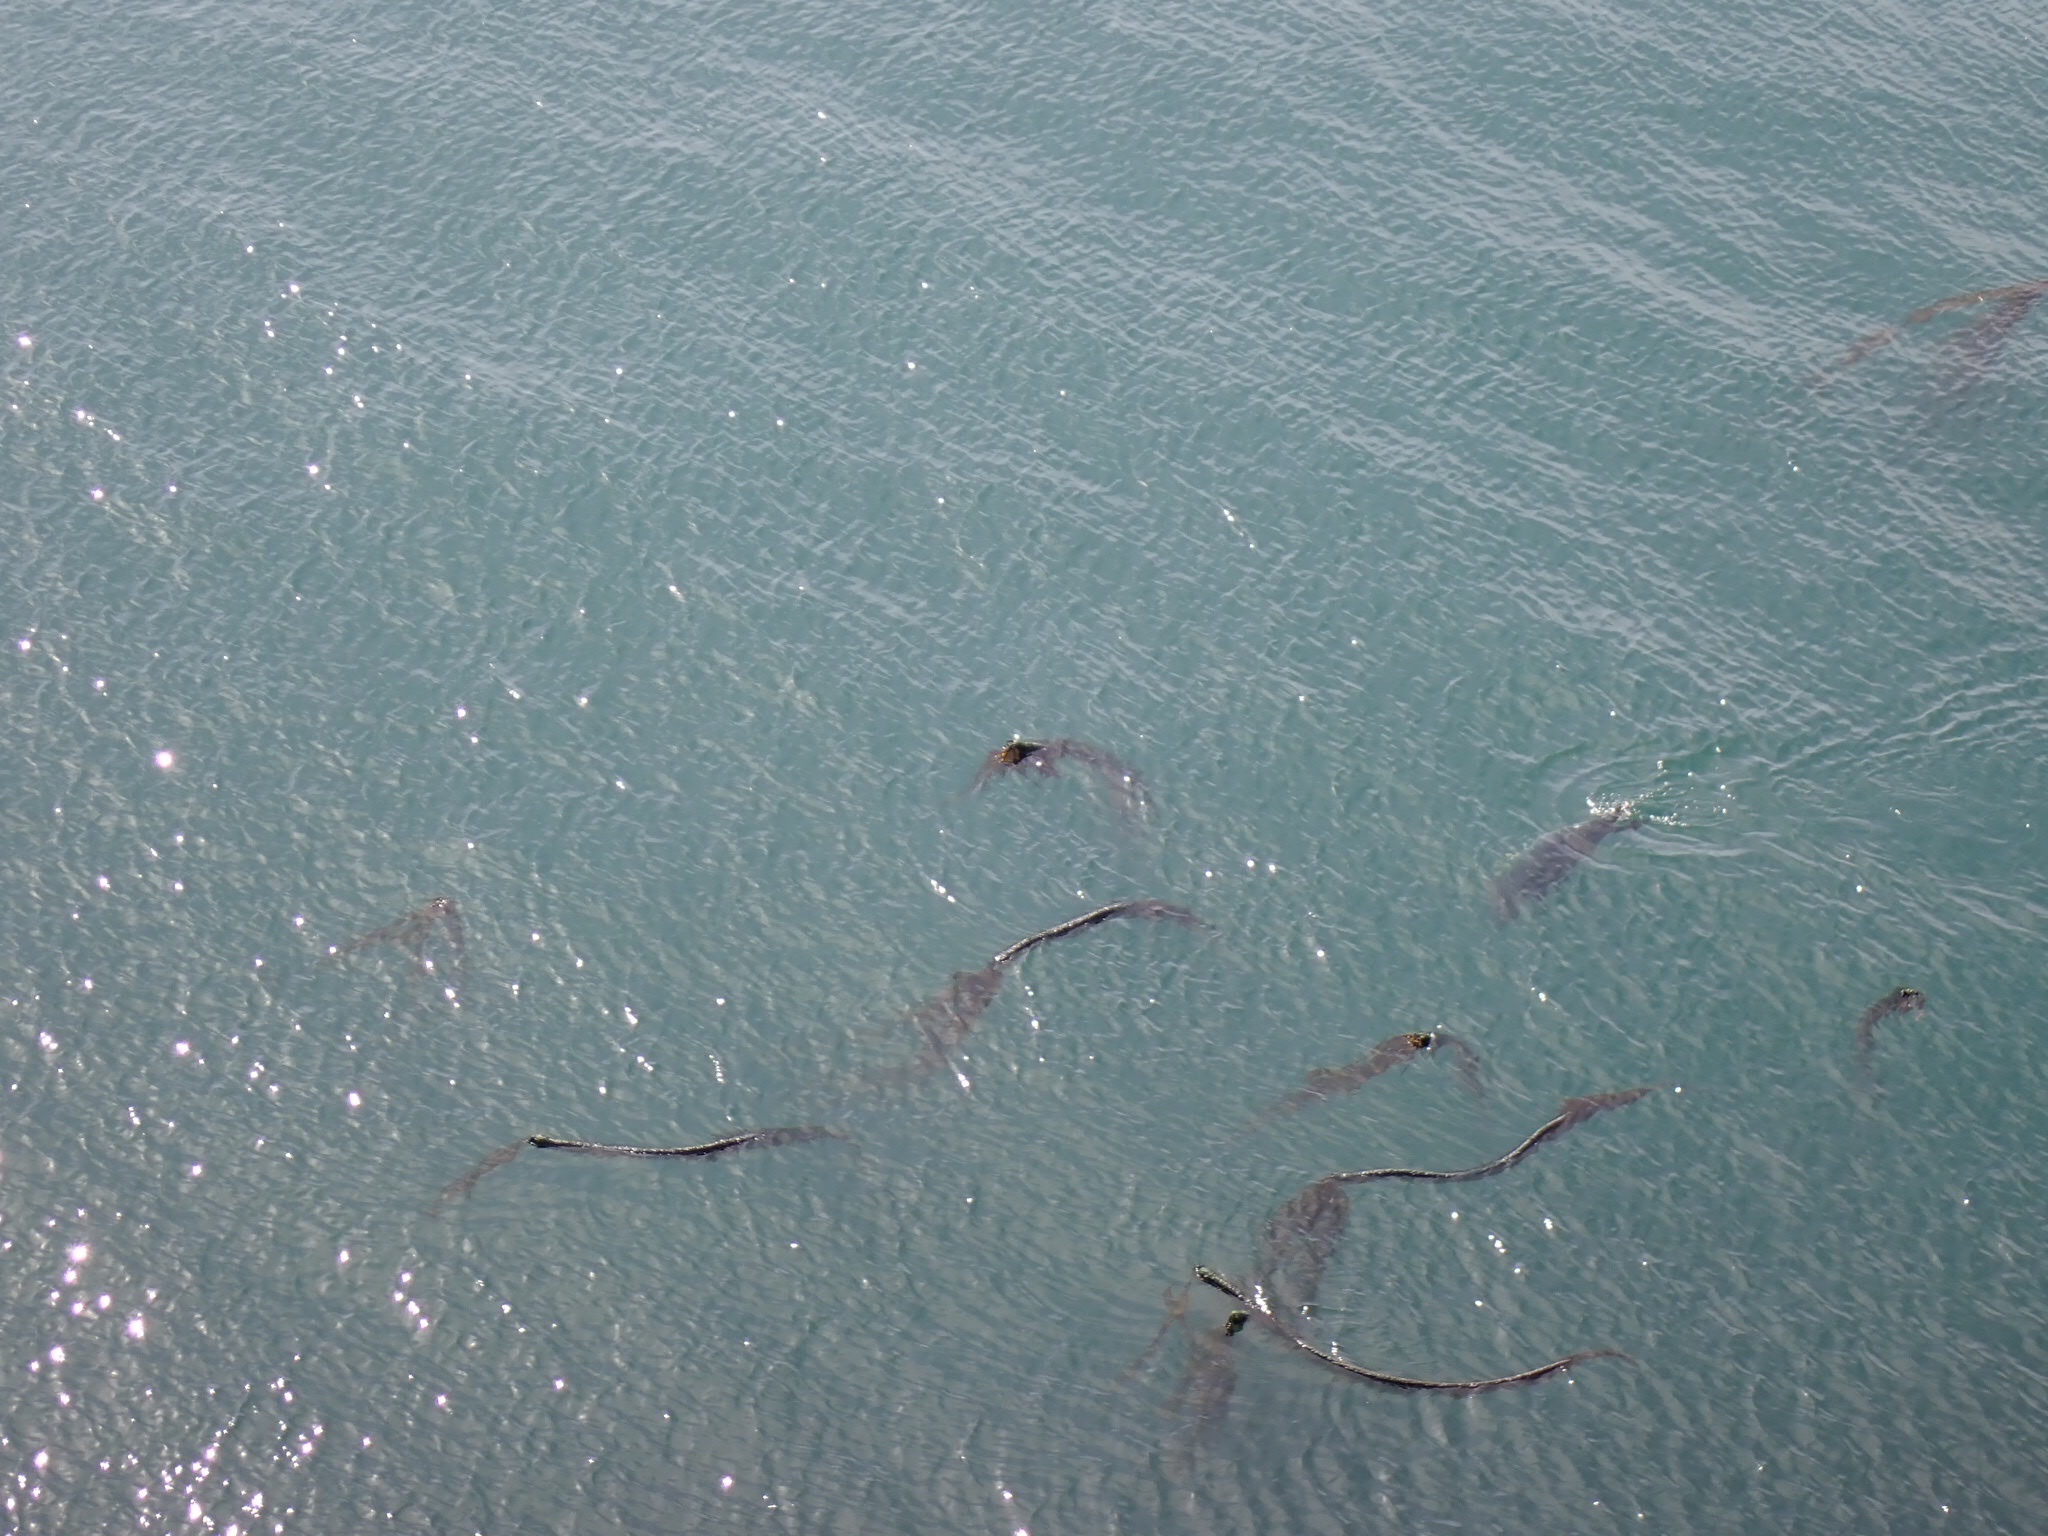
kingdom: Animalia
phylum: Chordata
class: Mammalia
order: Carnivora
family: Phocidae
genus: Phoca
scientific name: Phoca vitulina
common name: Harbor seal
